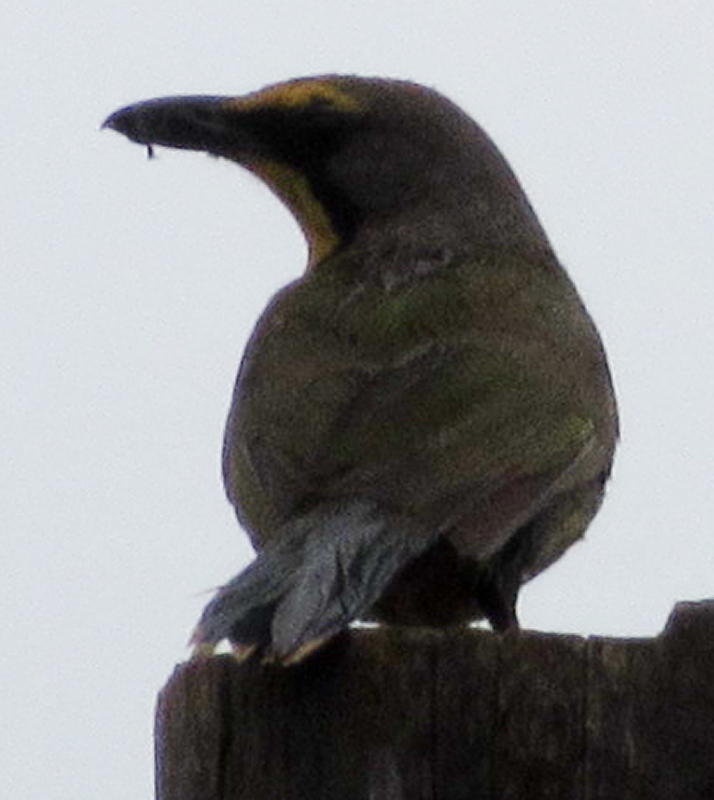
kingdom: Animalia
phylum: Chordata
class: Aves
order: Passeriformes
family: Malaconotidae
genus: Telophorus
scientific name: Telophorus zeylonus
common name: Bokmakierie
